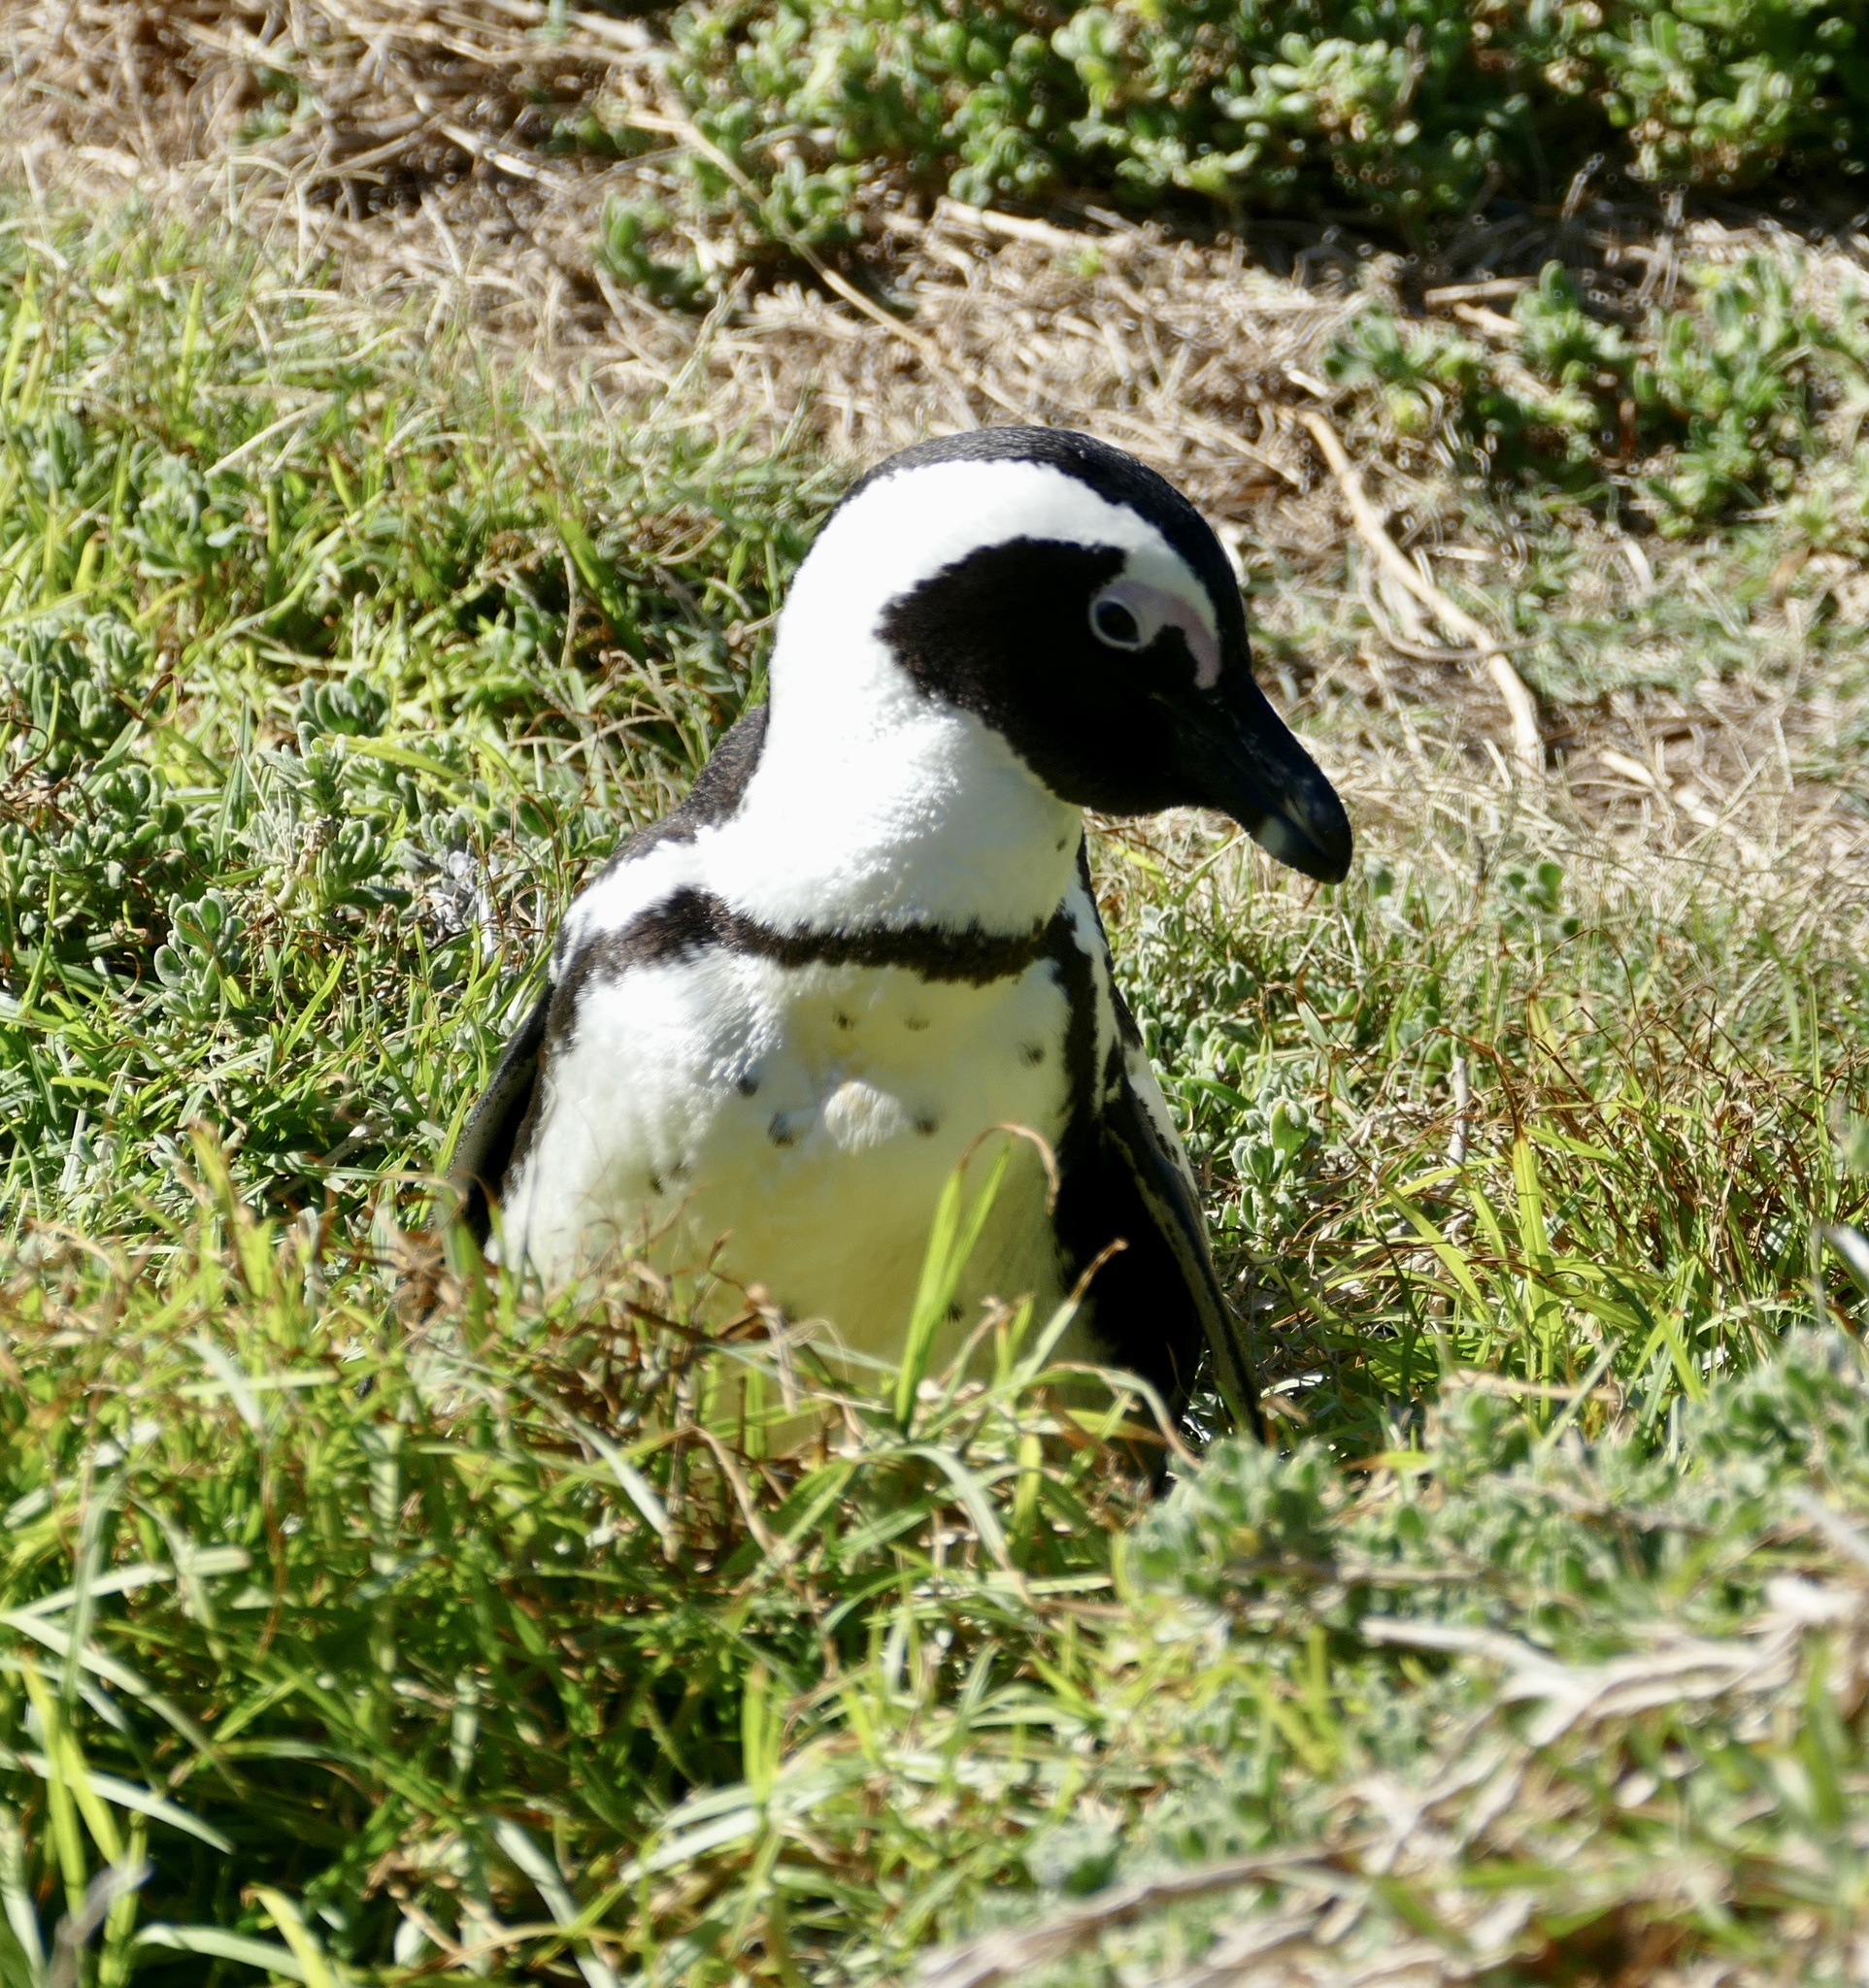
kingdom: Animalia
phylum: Chordata
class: Aves
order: Sphenisciformes
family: Spheniscidae
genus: Spheniscus
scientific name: Spheniscus demersus
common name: African penguin
